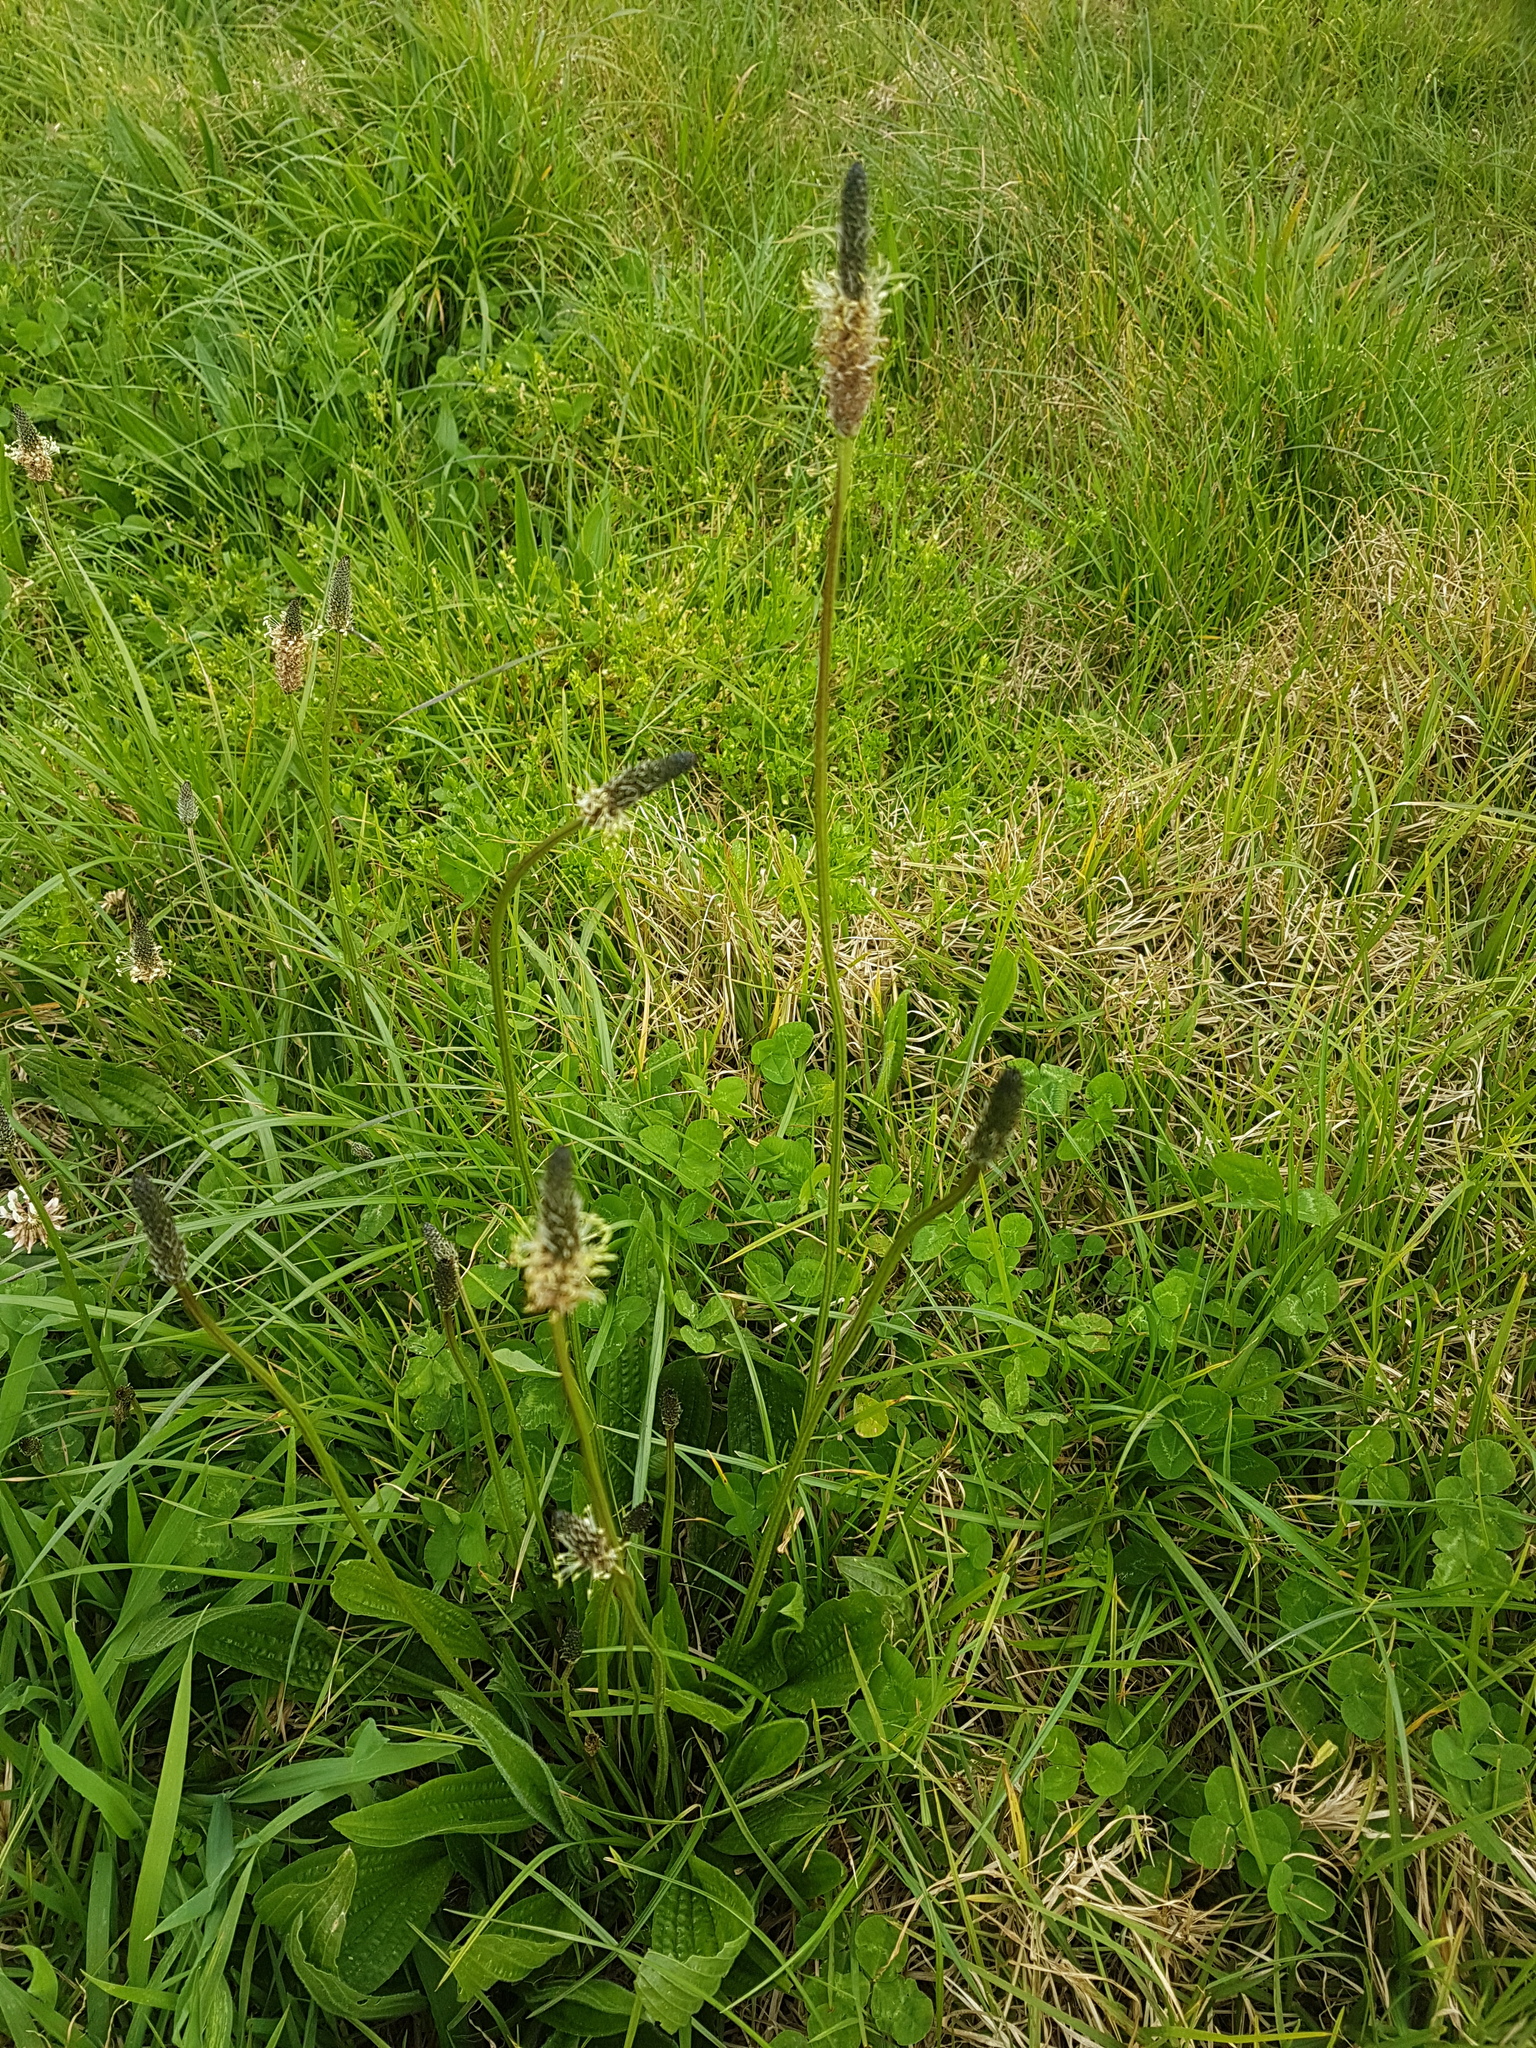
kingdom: Plantae
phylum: Tracheophyta
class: Magnoliopsida
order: Lamiales
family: Plantaginaceae
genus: Plantago
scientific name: Plantago lanceolata
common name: Ribwort plantain
